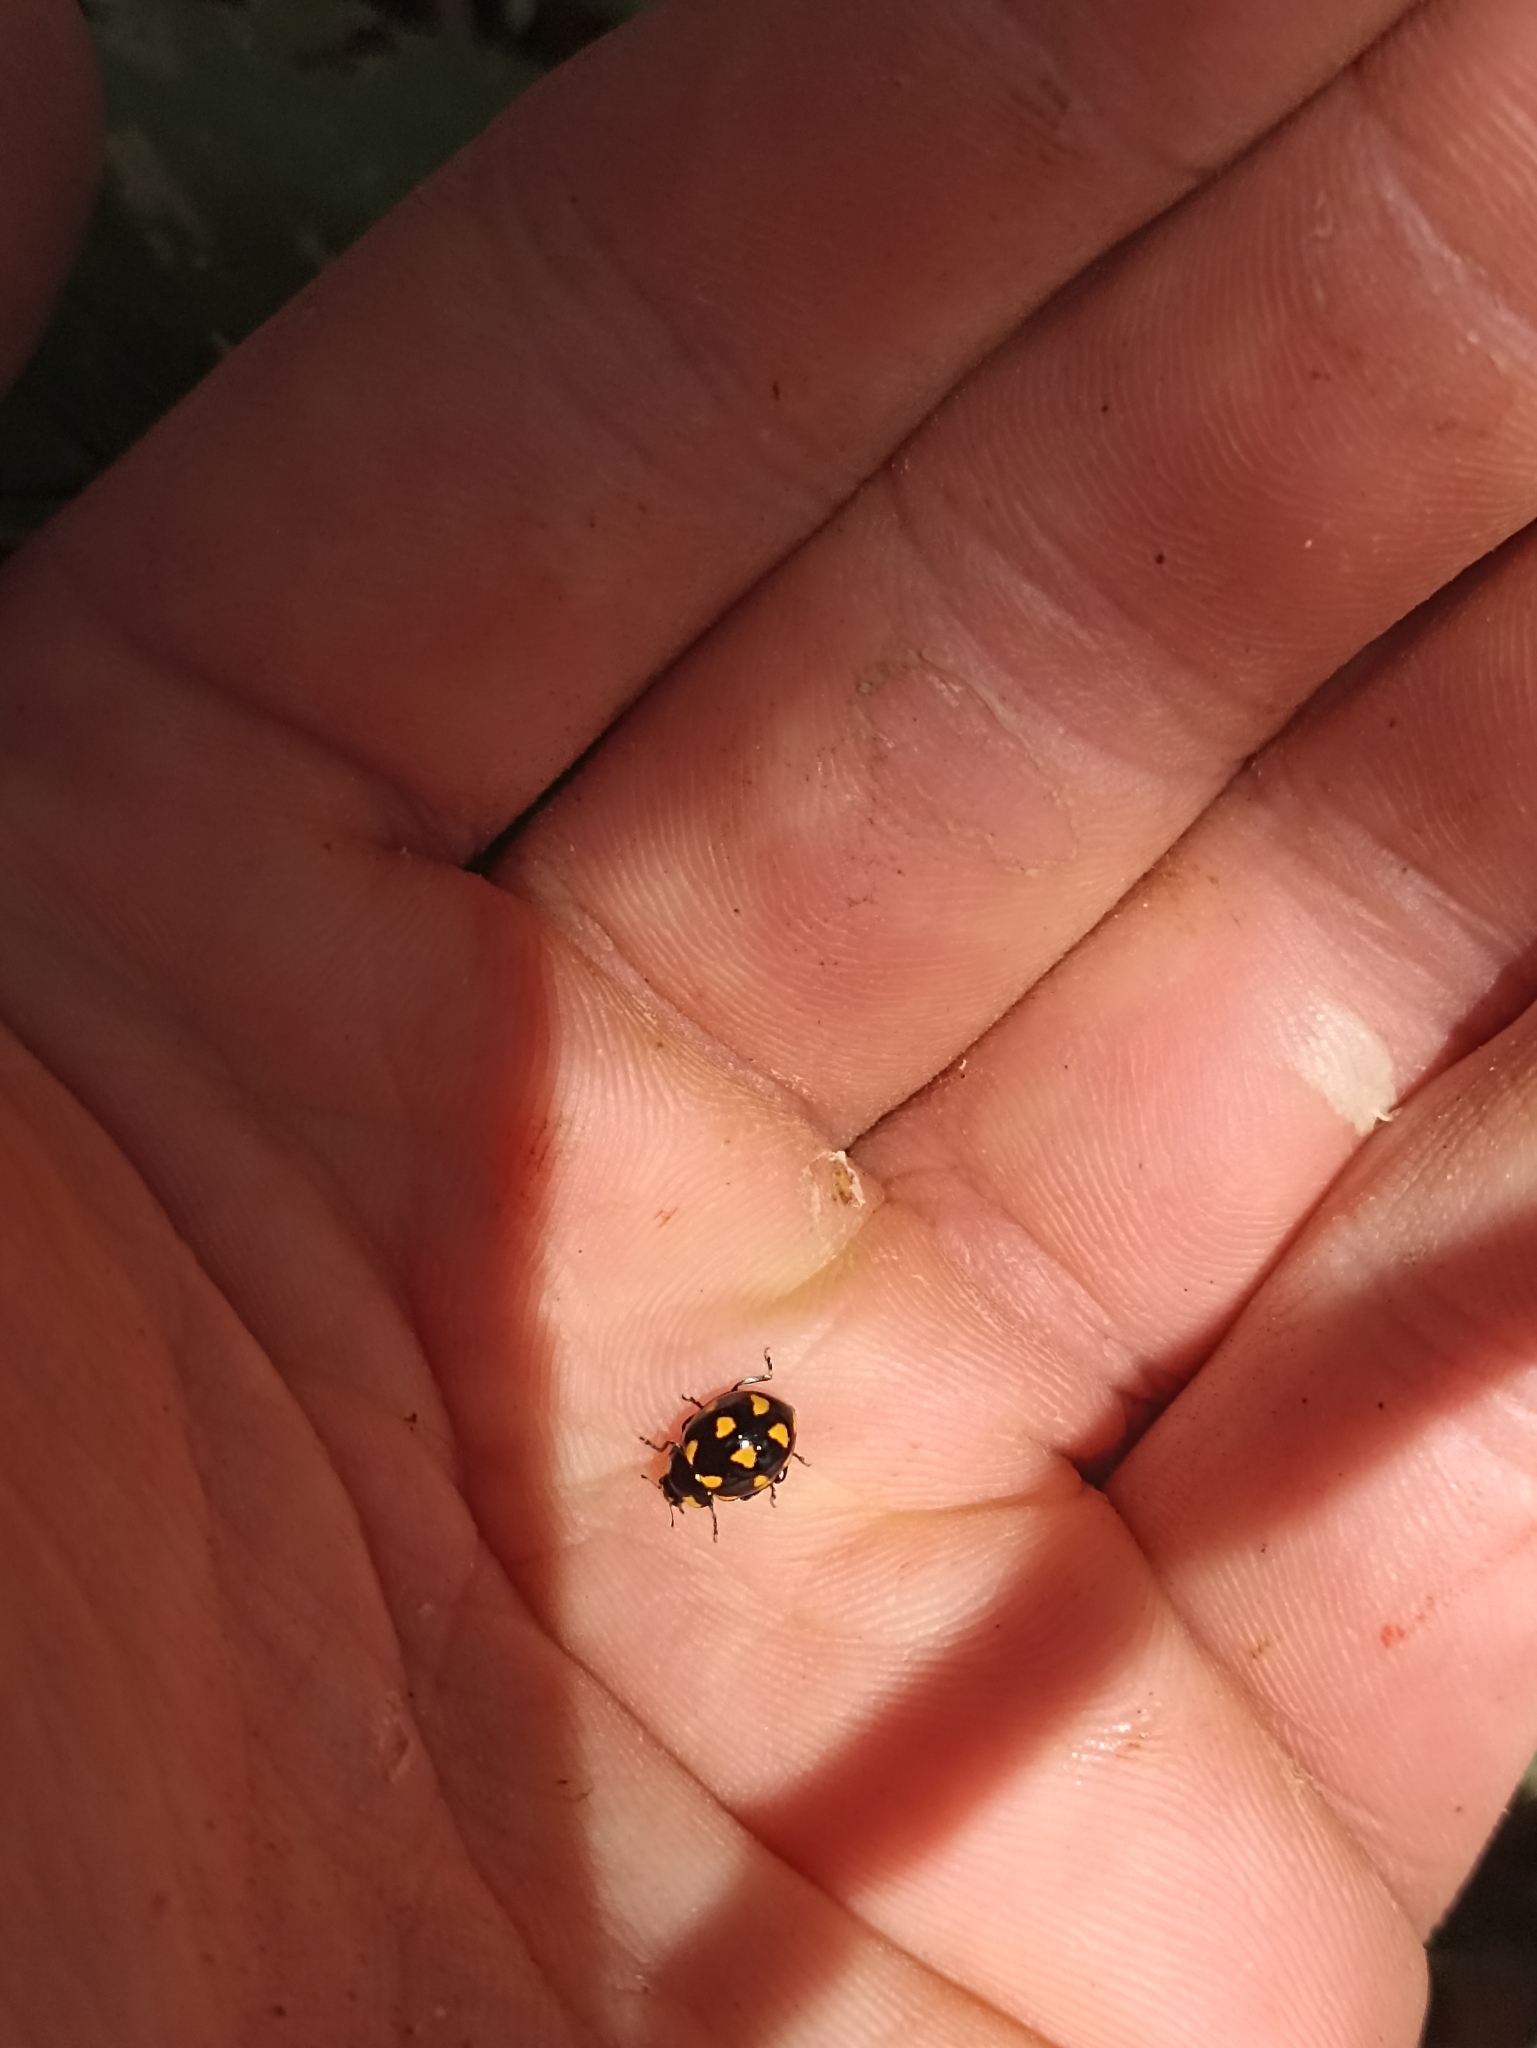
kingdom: Animalia
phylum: Arthropoda
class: Insecta
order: Coleoptera
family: Coccinellidae
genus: Coccinella
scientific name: Coccinella leonina
